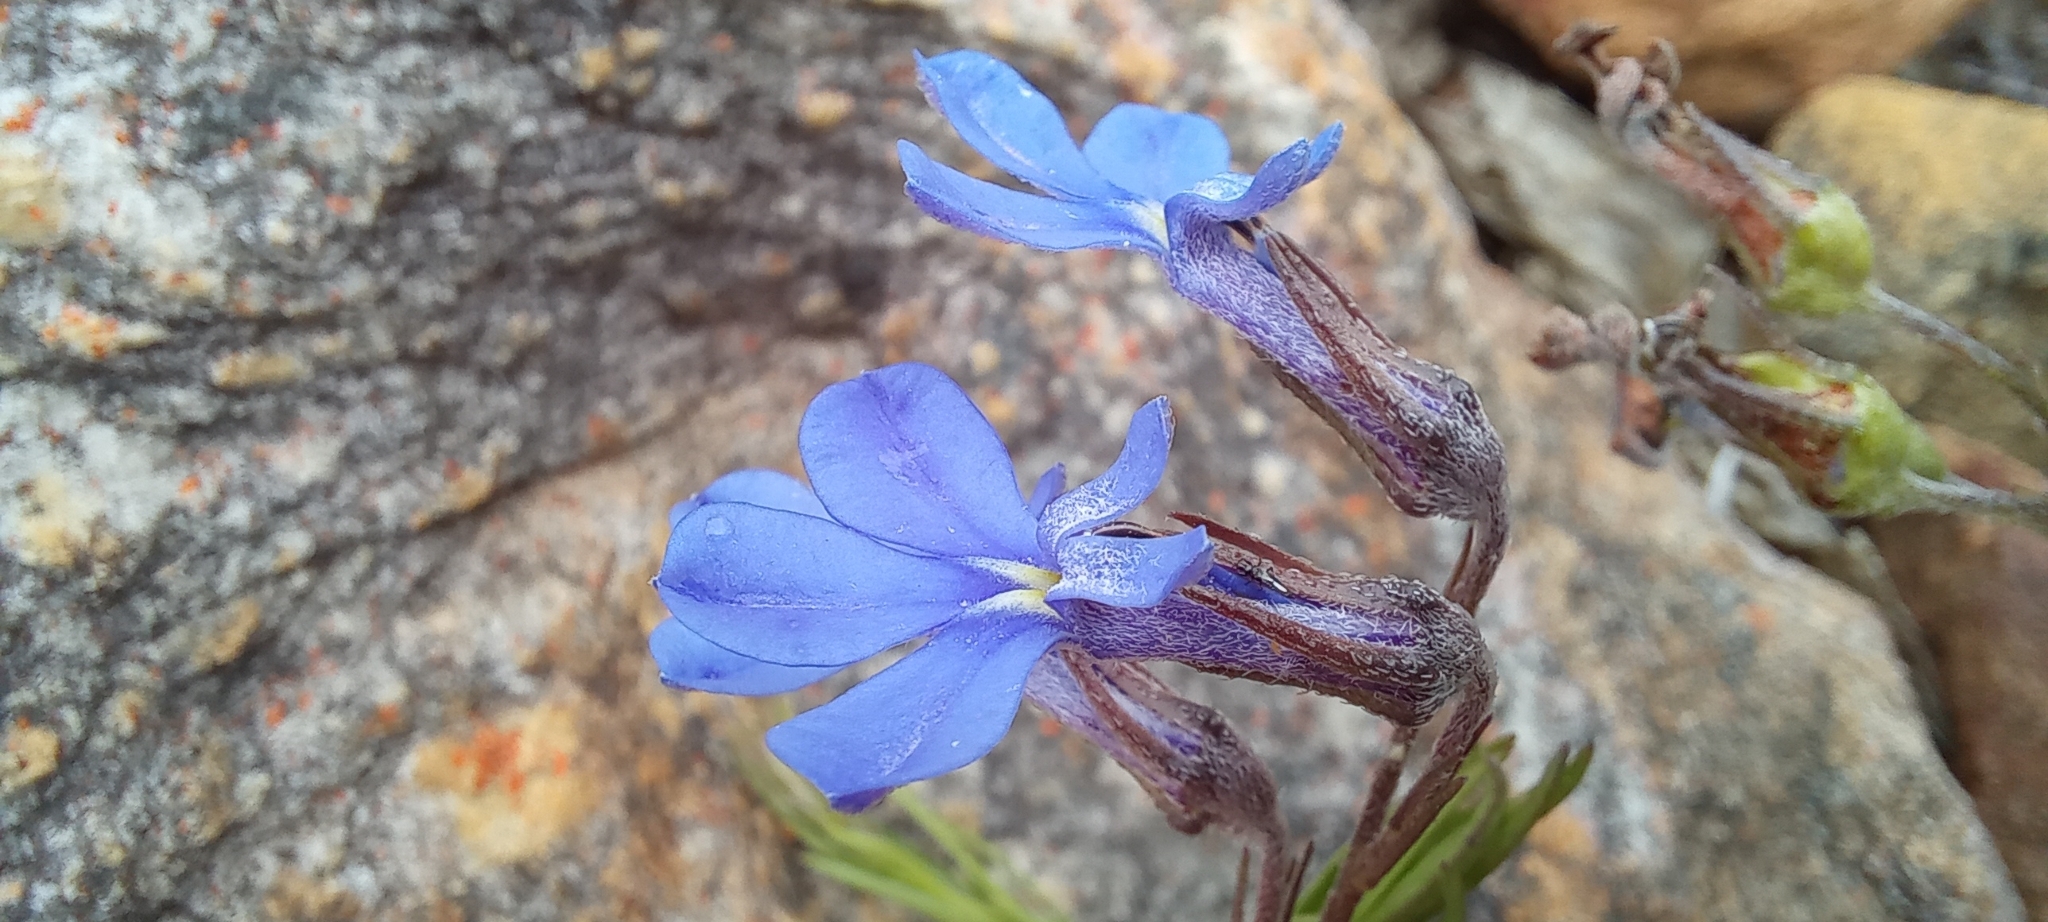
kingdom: Plantae
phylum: Tracheophyta
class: Magnoliopsida
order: Asterales
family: Campanulaceae
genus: Lobelia
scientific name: Lobelia pinifolia
